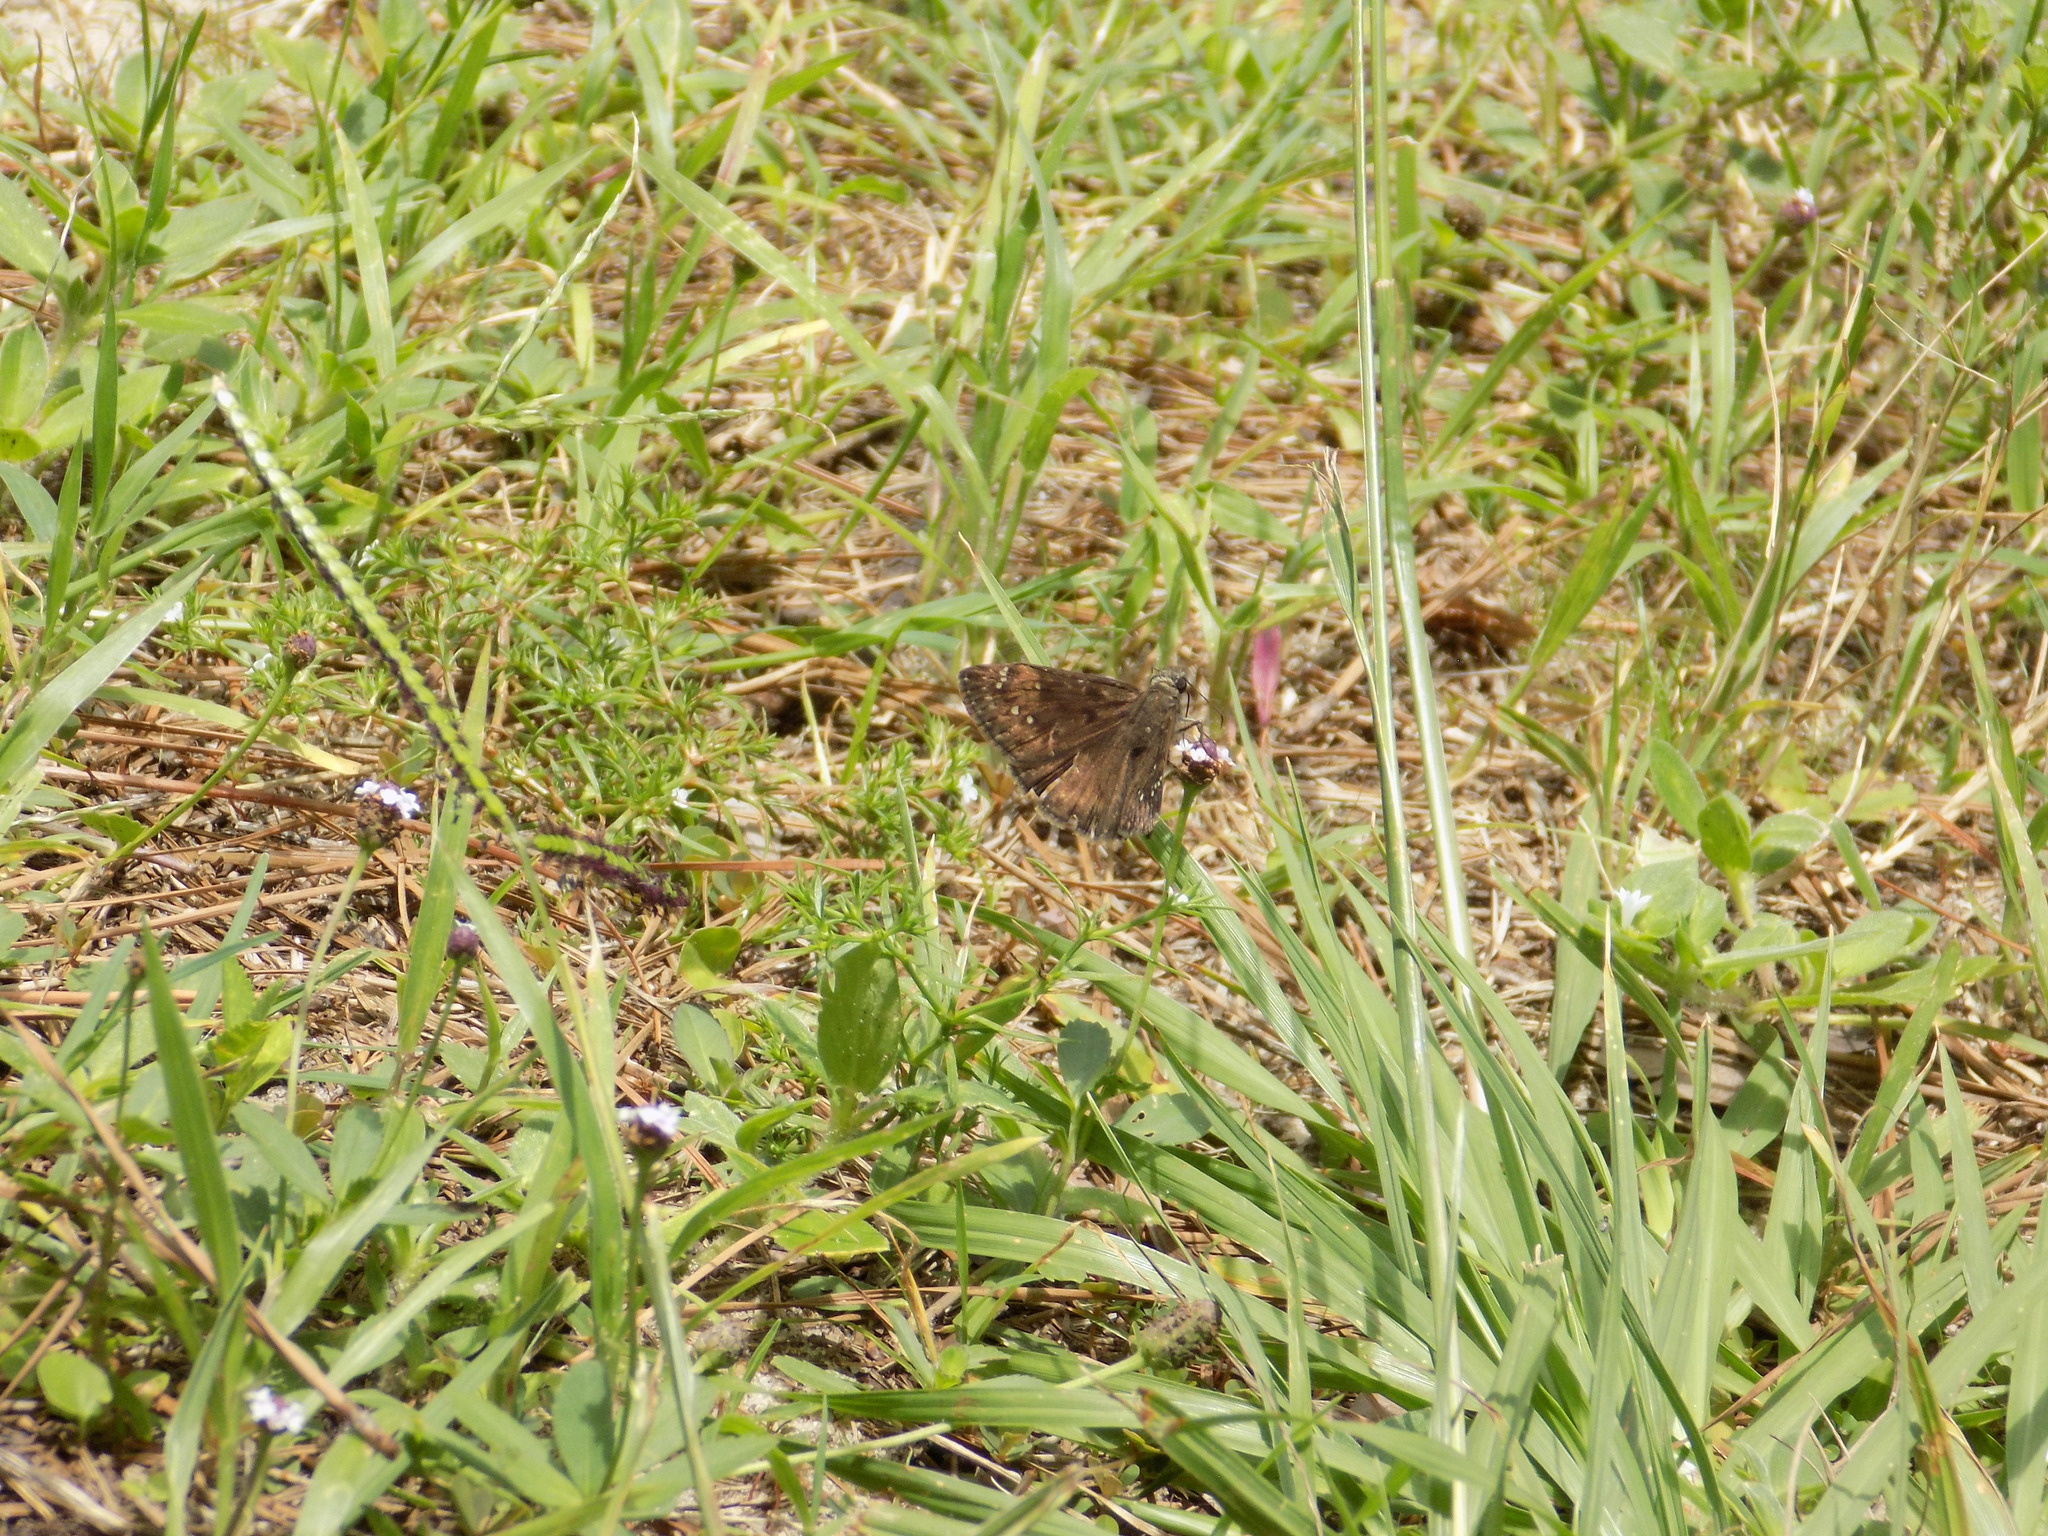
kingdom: Animalia
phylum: Arthropoda
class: Insecta
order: Lepidoptera
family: Hesperiidae
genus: Erynnis
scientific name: Erynnis horatius
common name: Horace's duskywing
